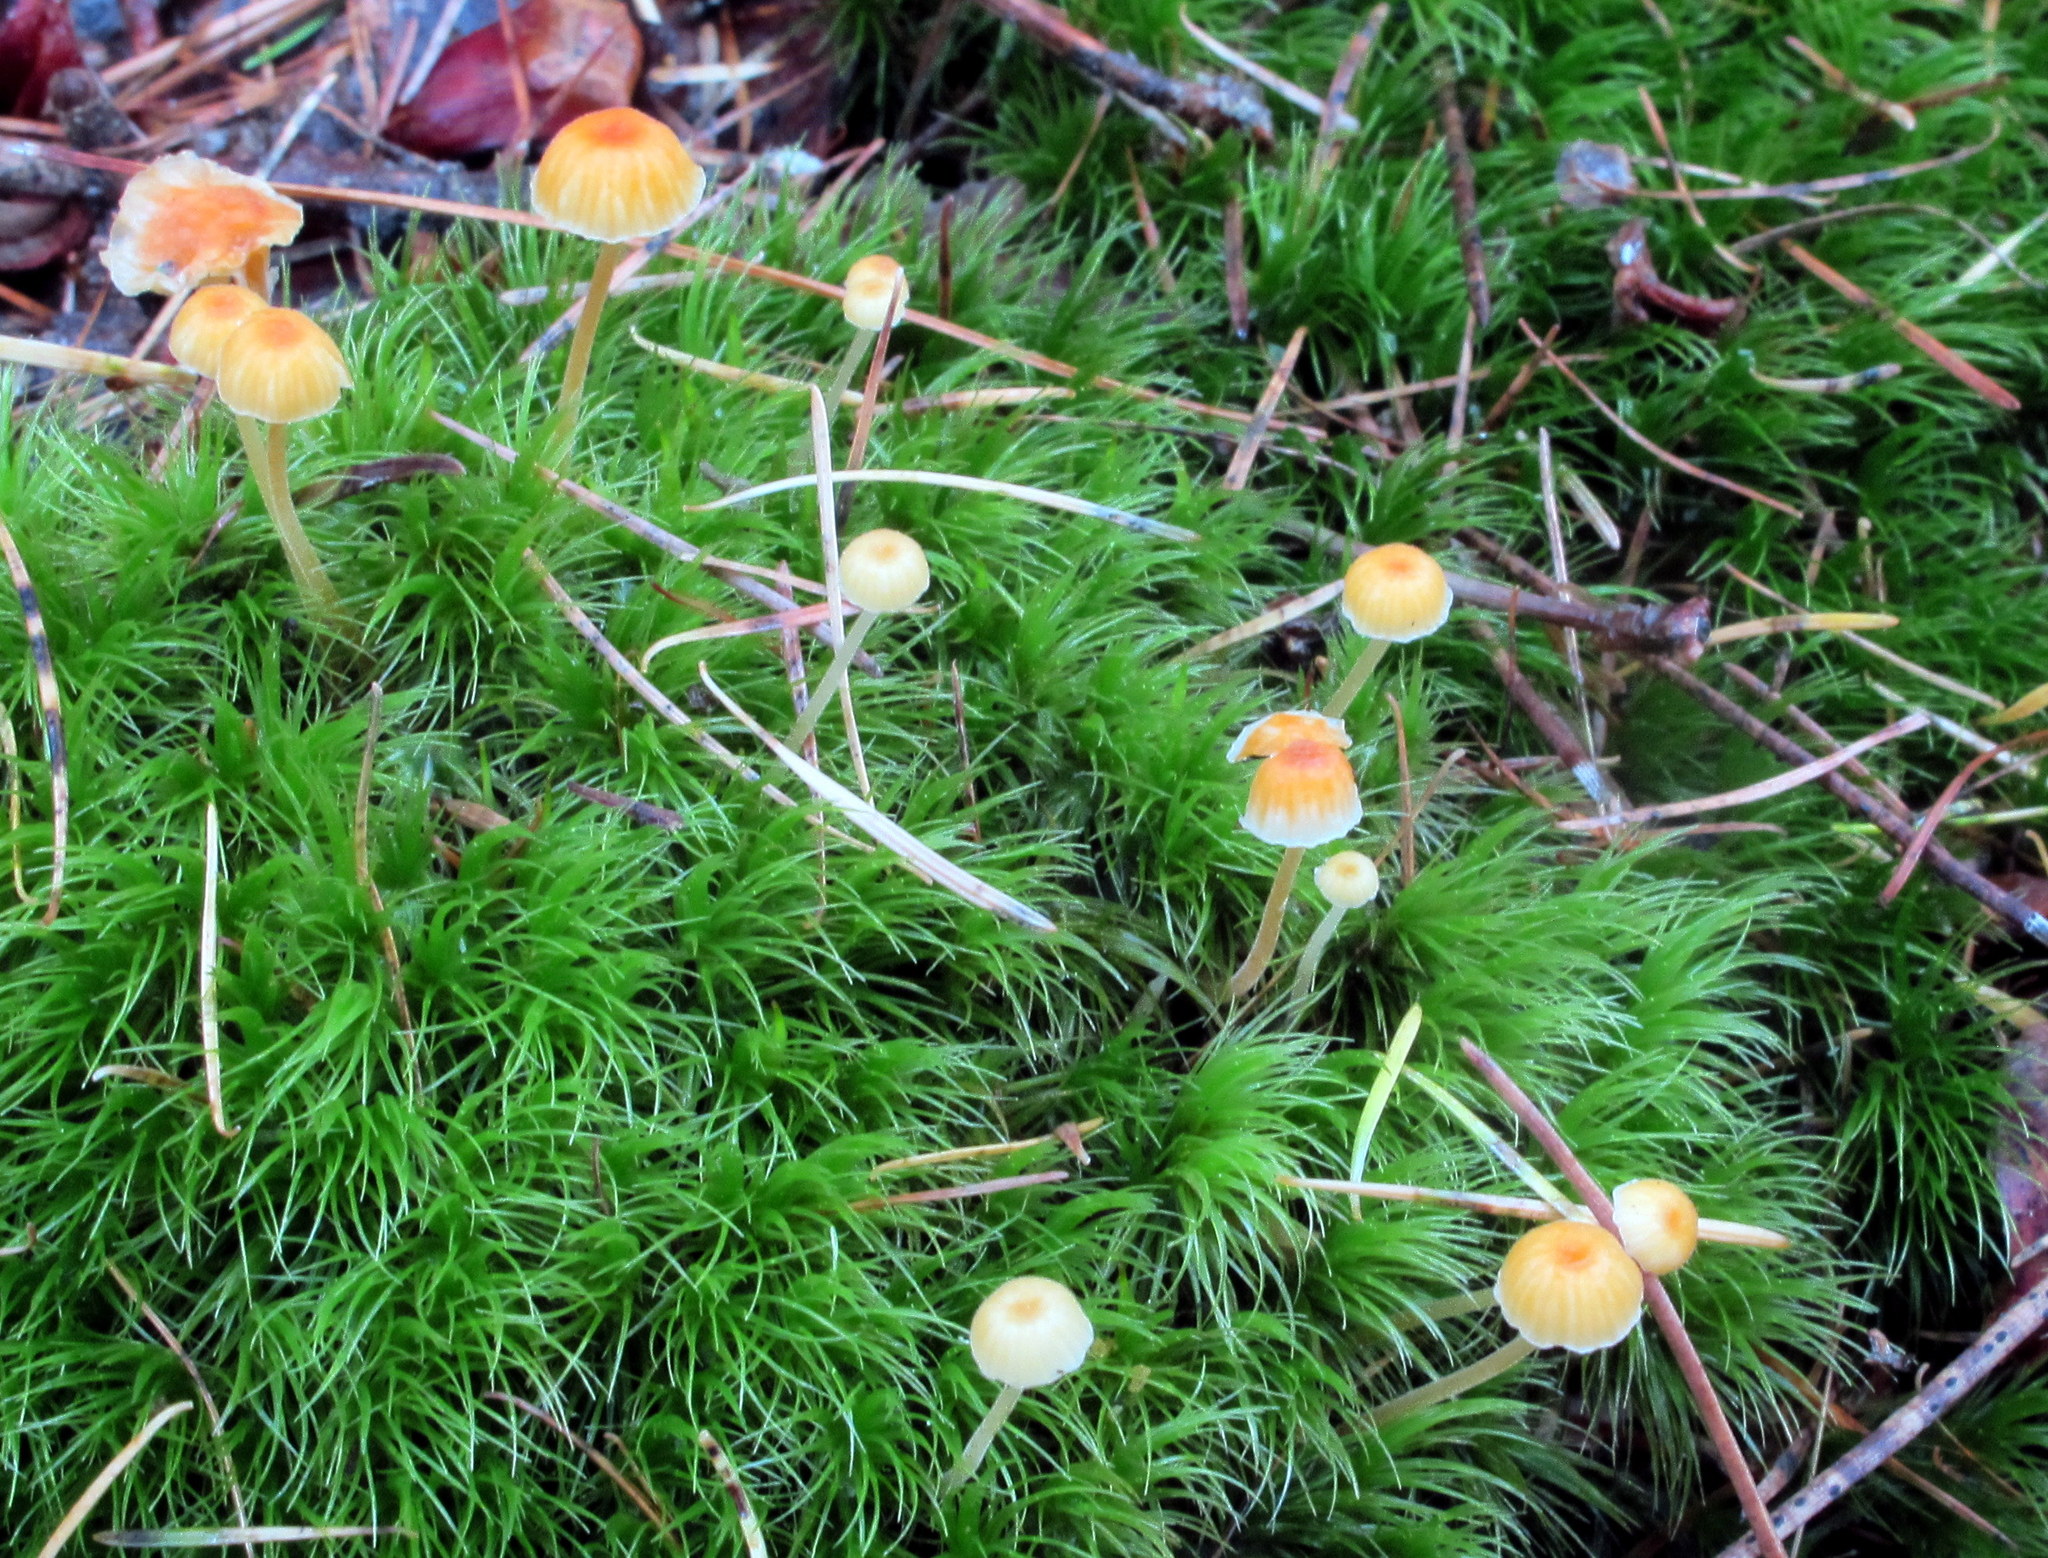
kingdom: Fungi
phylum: Basidiomycota
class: Agaricomycetes
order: Hymenochaetales
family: Rickenellaceae
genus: Rickenella
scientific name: Rickenella fibula
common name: Orange mosscap
